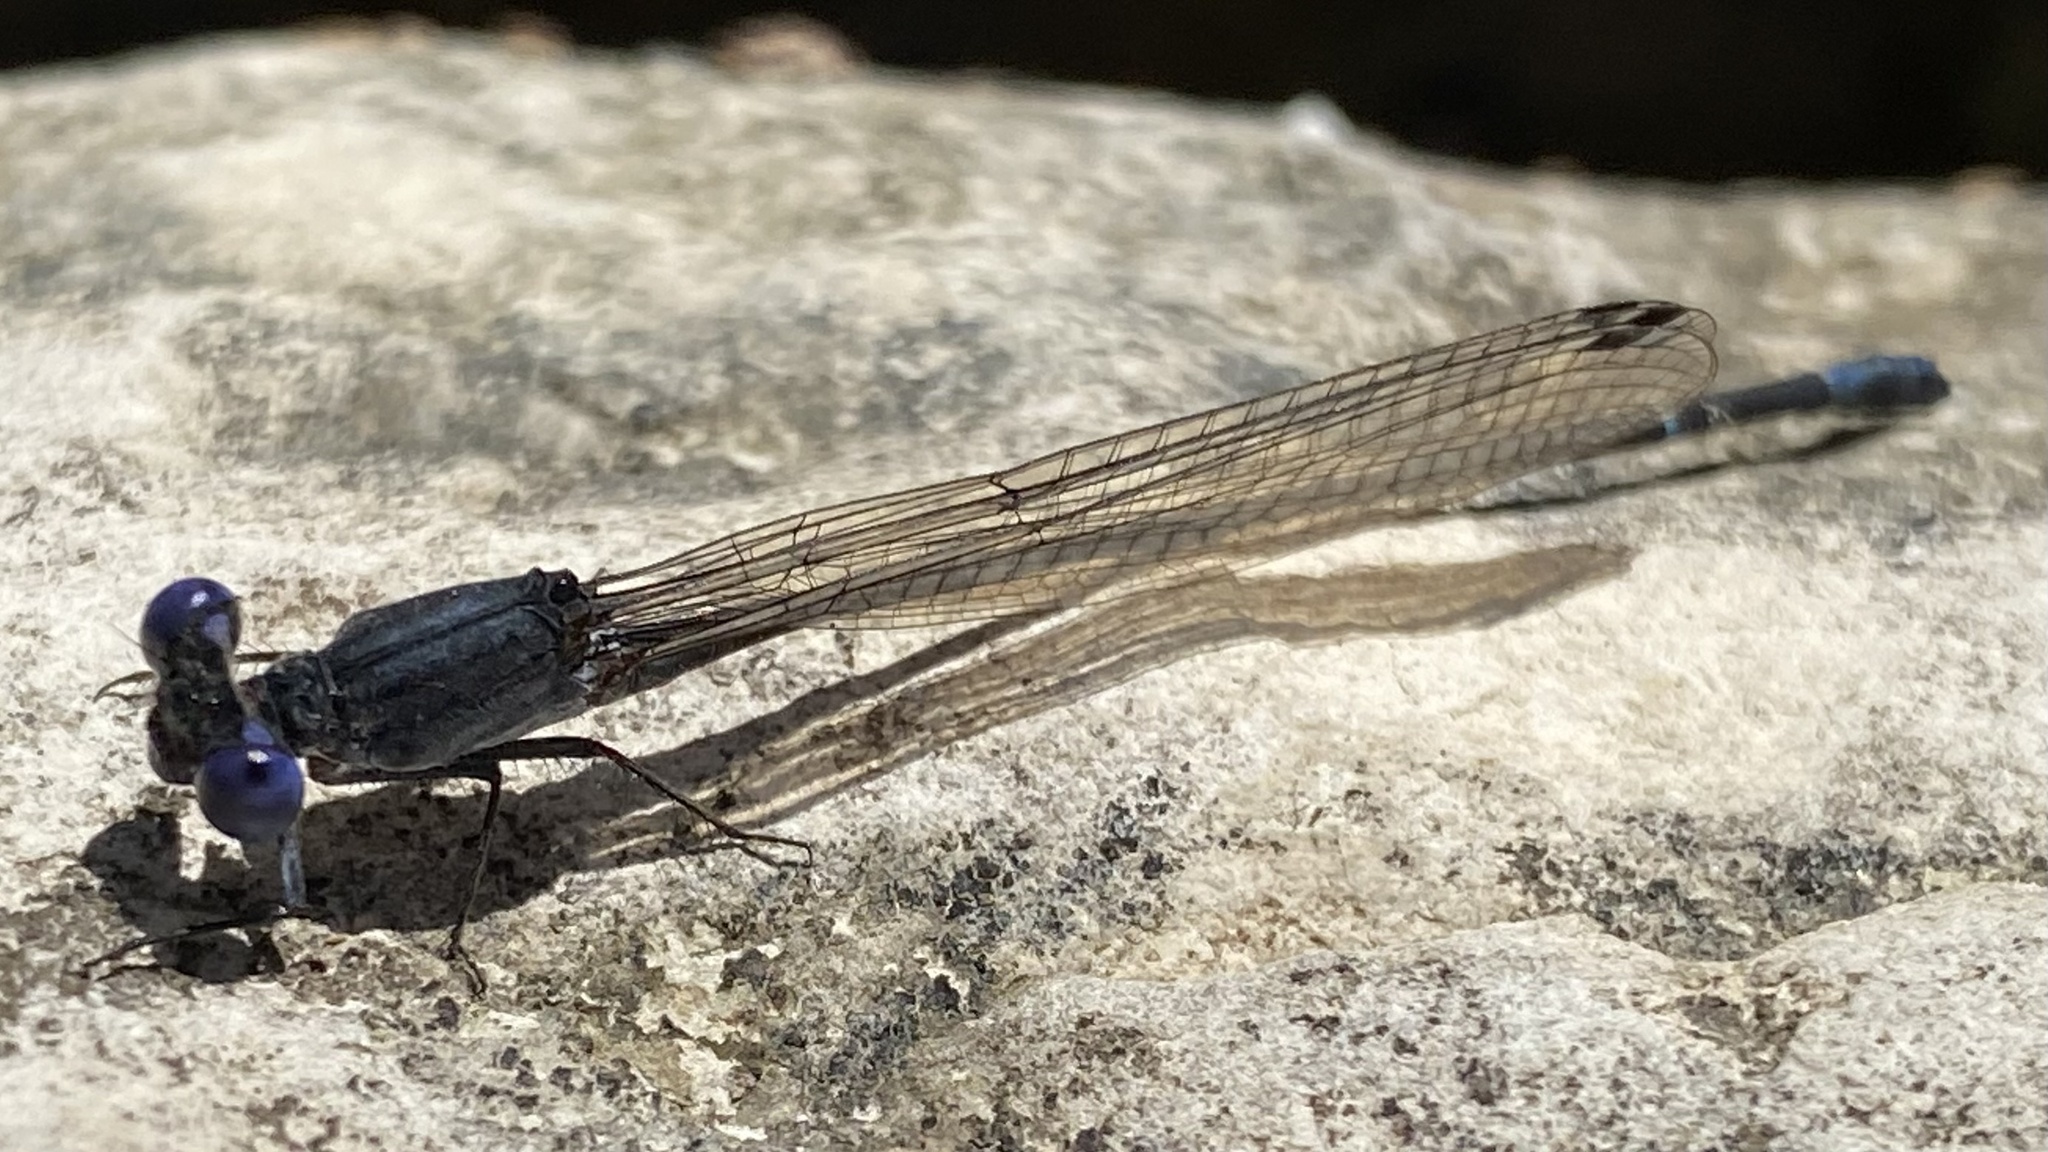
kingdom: Animalia
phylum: Arthropoda
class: Insecta
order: Odonata
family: Coenagrionidae
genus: Argia
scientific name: Argia translata
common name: Dusky dancer
